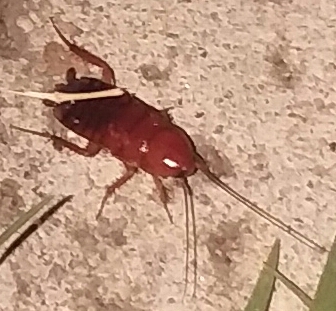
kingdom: Animalia
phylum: Arthropoda
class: Insecta
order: Blattodea
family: Blattidae
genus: Periplaneta
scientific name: Periplaneta lateralis
